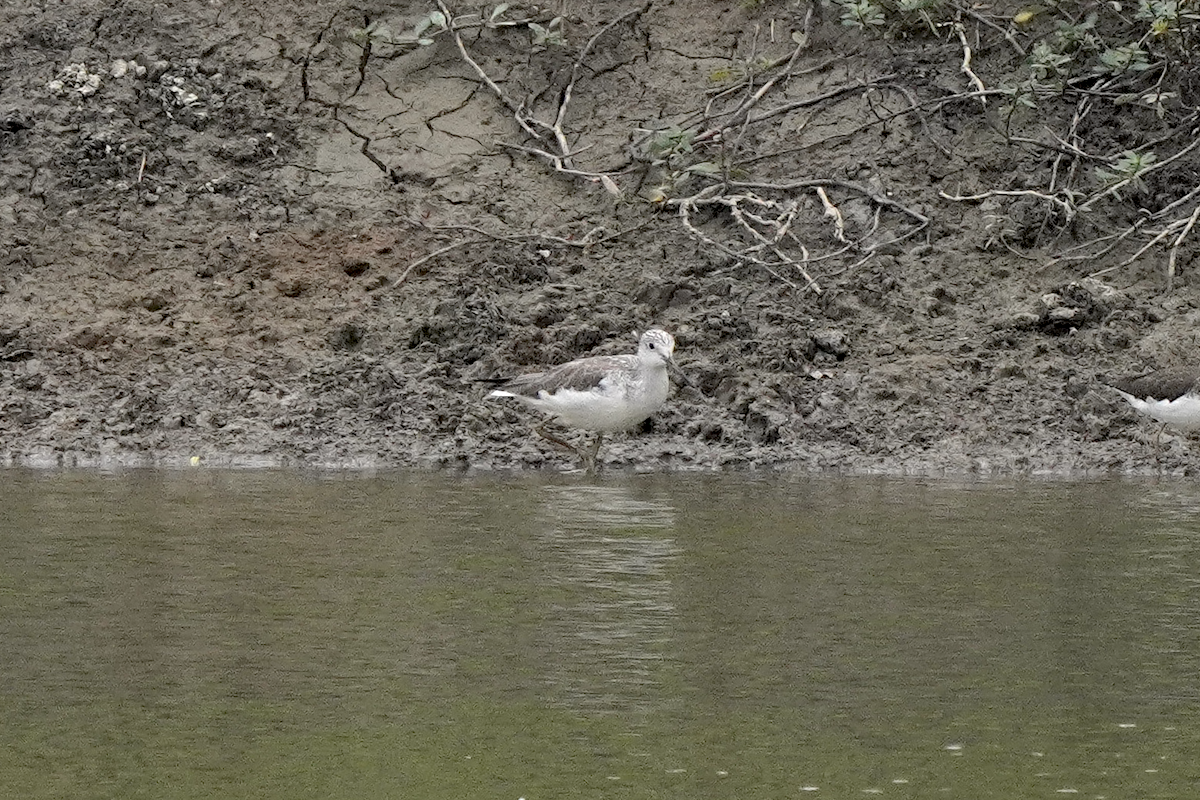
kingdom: Animalia
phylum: Chordata
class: Aves
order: Charadriiformes
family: Scolopacidae
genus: Tringa
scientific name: Tringa nebularia
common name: Common greenshank
